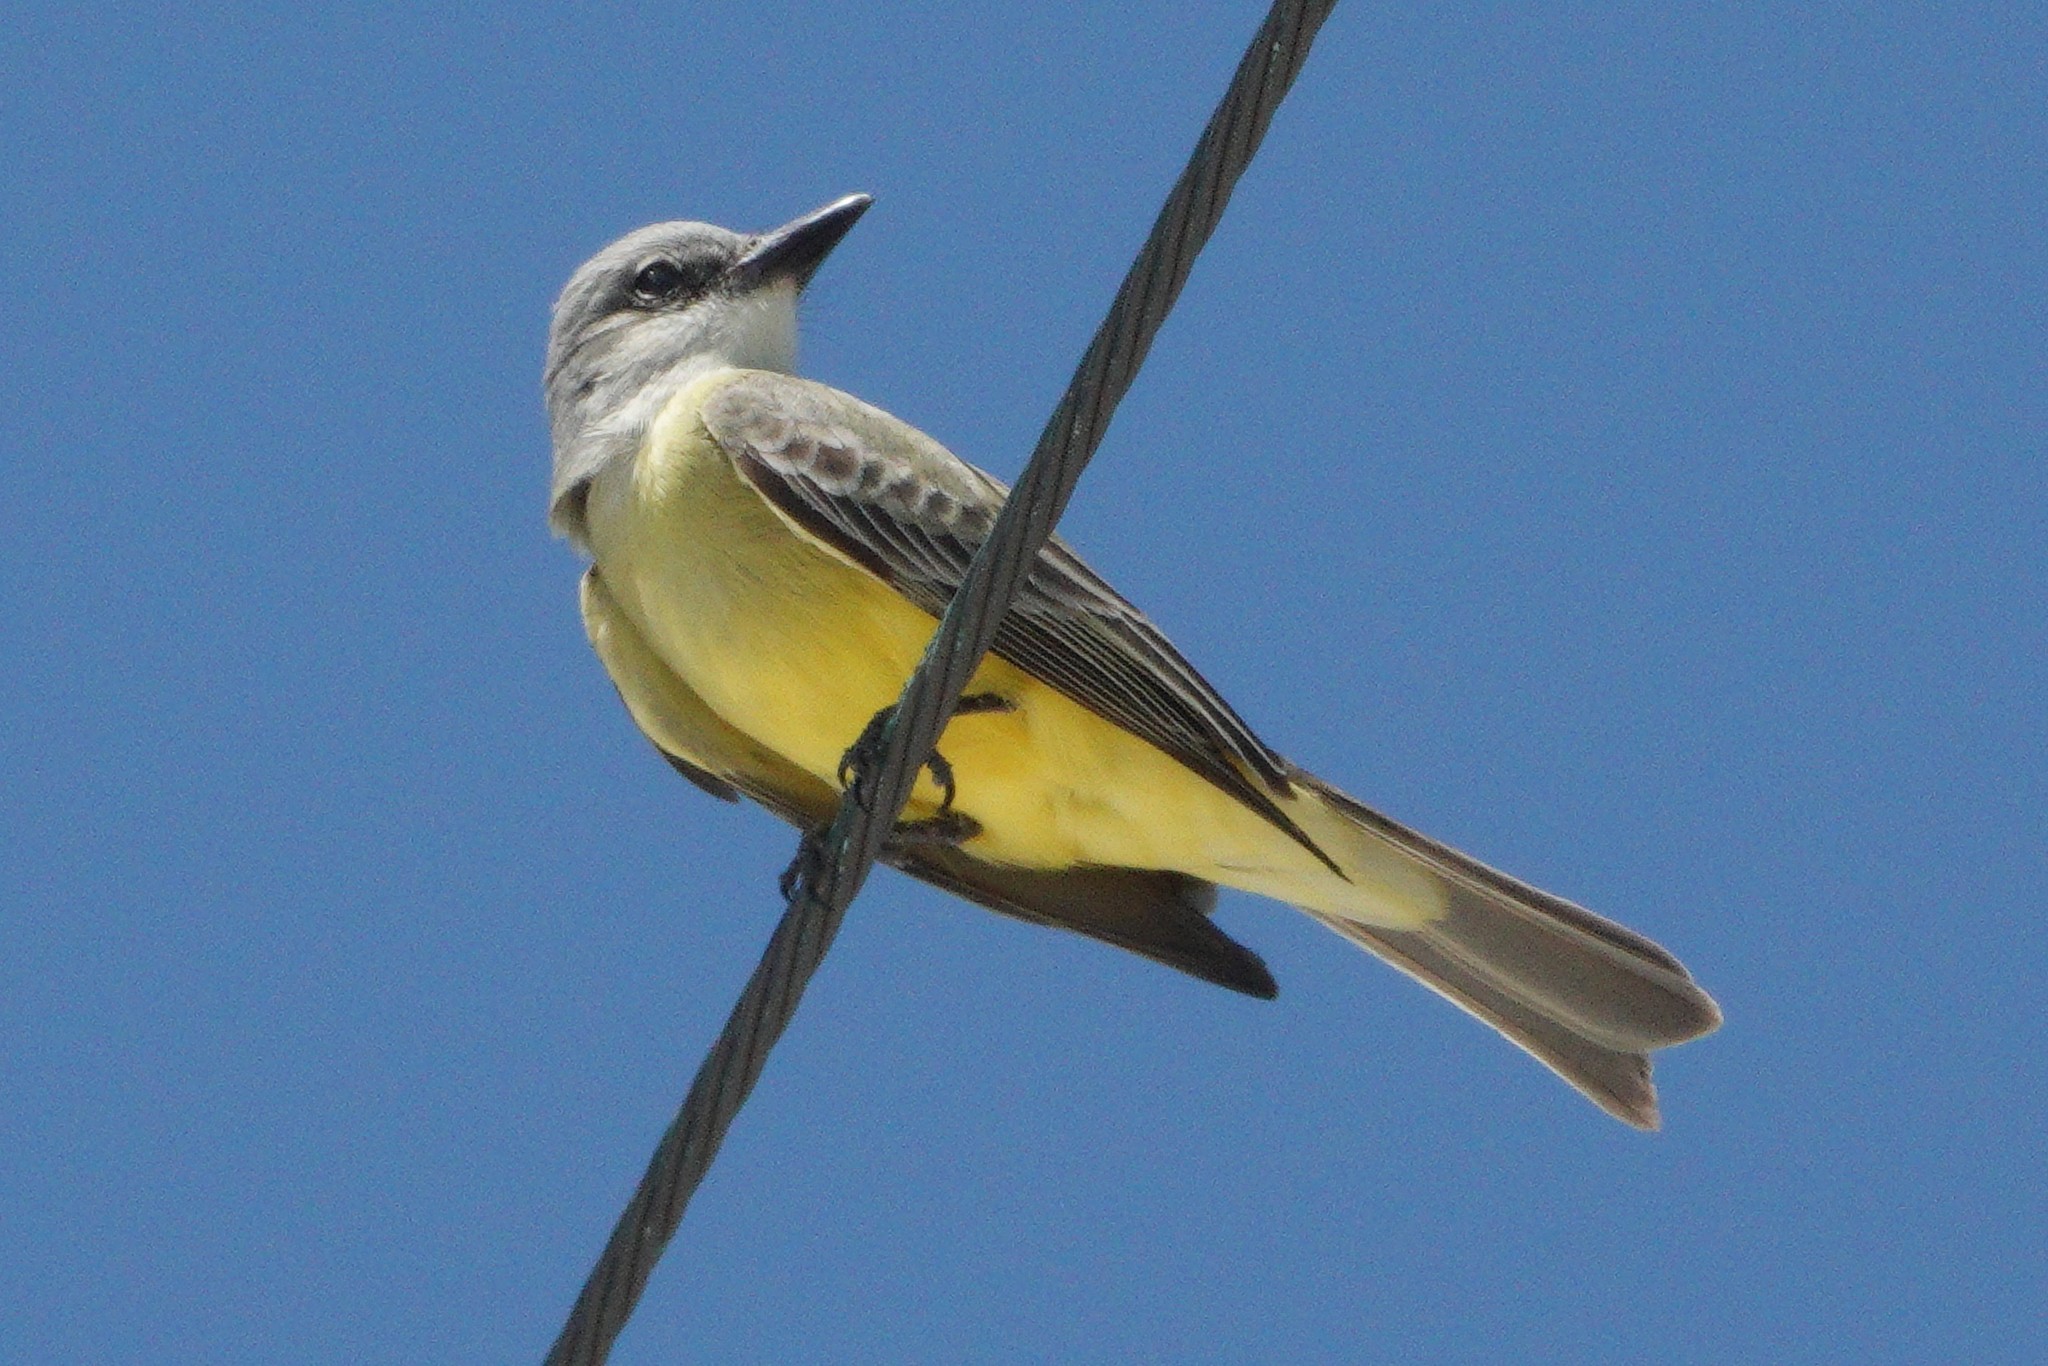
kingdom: Animalia
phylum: Chordata
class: Aves
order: Passeriformes
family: Tyrannidae
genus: Tyrannus
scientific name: Tyrannus melancholicus
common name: Tropical kingbird
